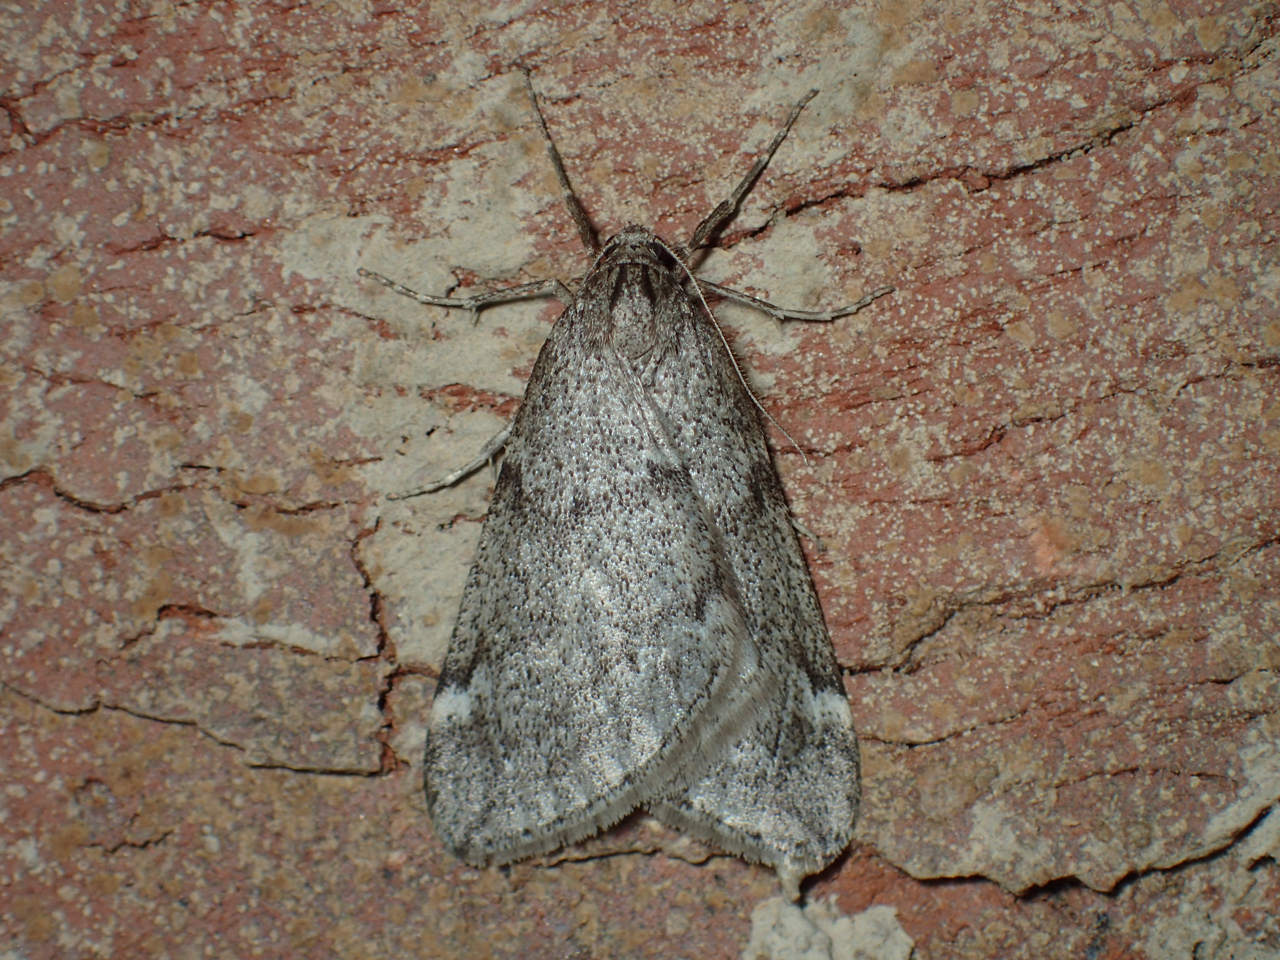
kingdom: Animalia
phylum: Arthropoda
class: Insecta
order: Lepidoptera
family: Geometridae
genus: Alsophila
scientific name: Alsophila pometaria
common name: Fall cankerworm
